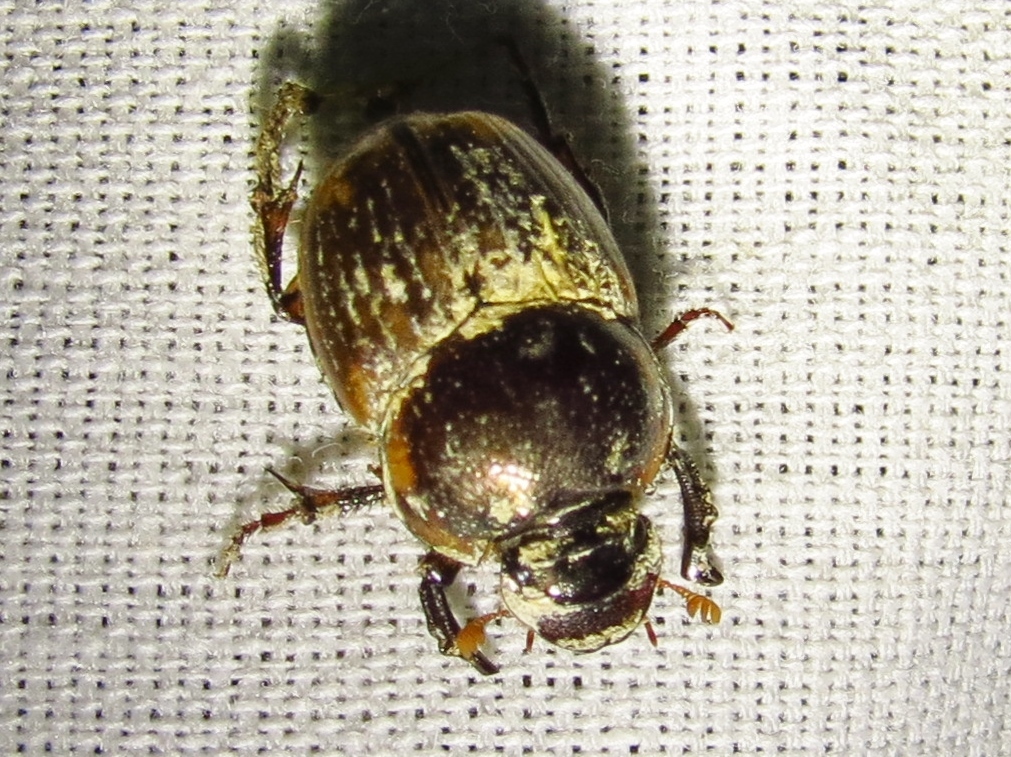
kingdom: Animalia
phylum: Arthropoda
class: Insecta
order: Coleoptera
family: Scarabaeidae
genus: Digitonthophagus
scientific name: Digitonthophagus gazella
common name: Brown dung beetle
